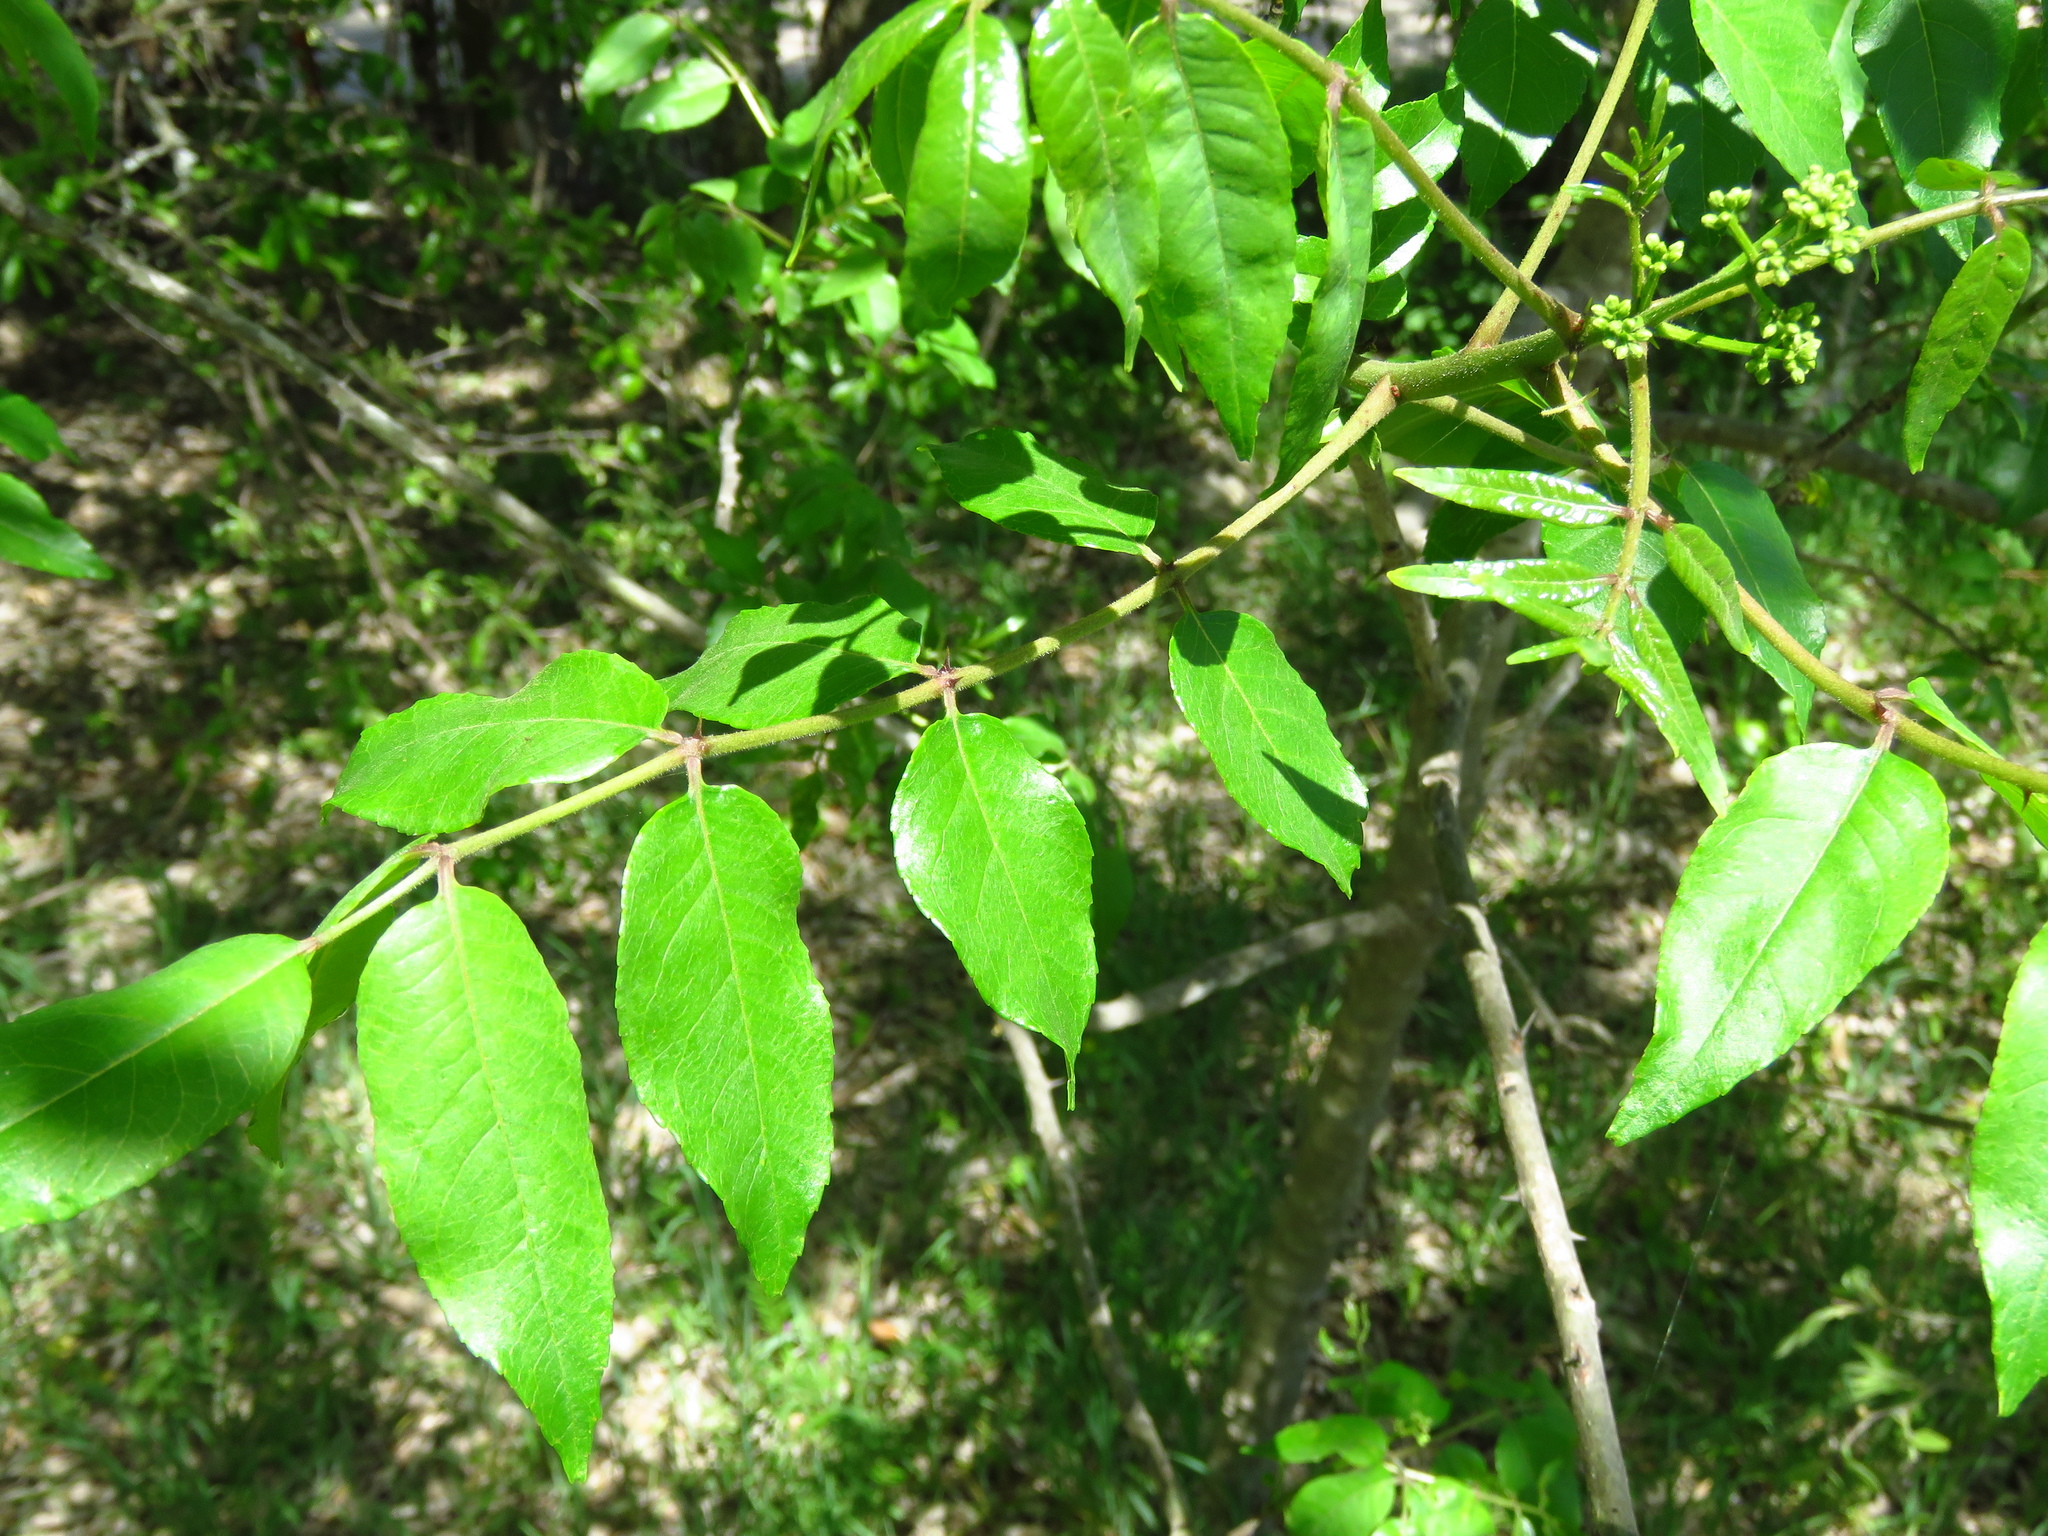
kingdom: Plantae
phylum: Tracheophyta
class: Magnoliopsida
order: Sapindales
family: Rutaceae
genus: Zanthoxylum
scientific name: Zanthoxylum clava-herculis
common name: Hercules'-club
